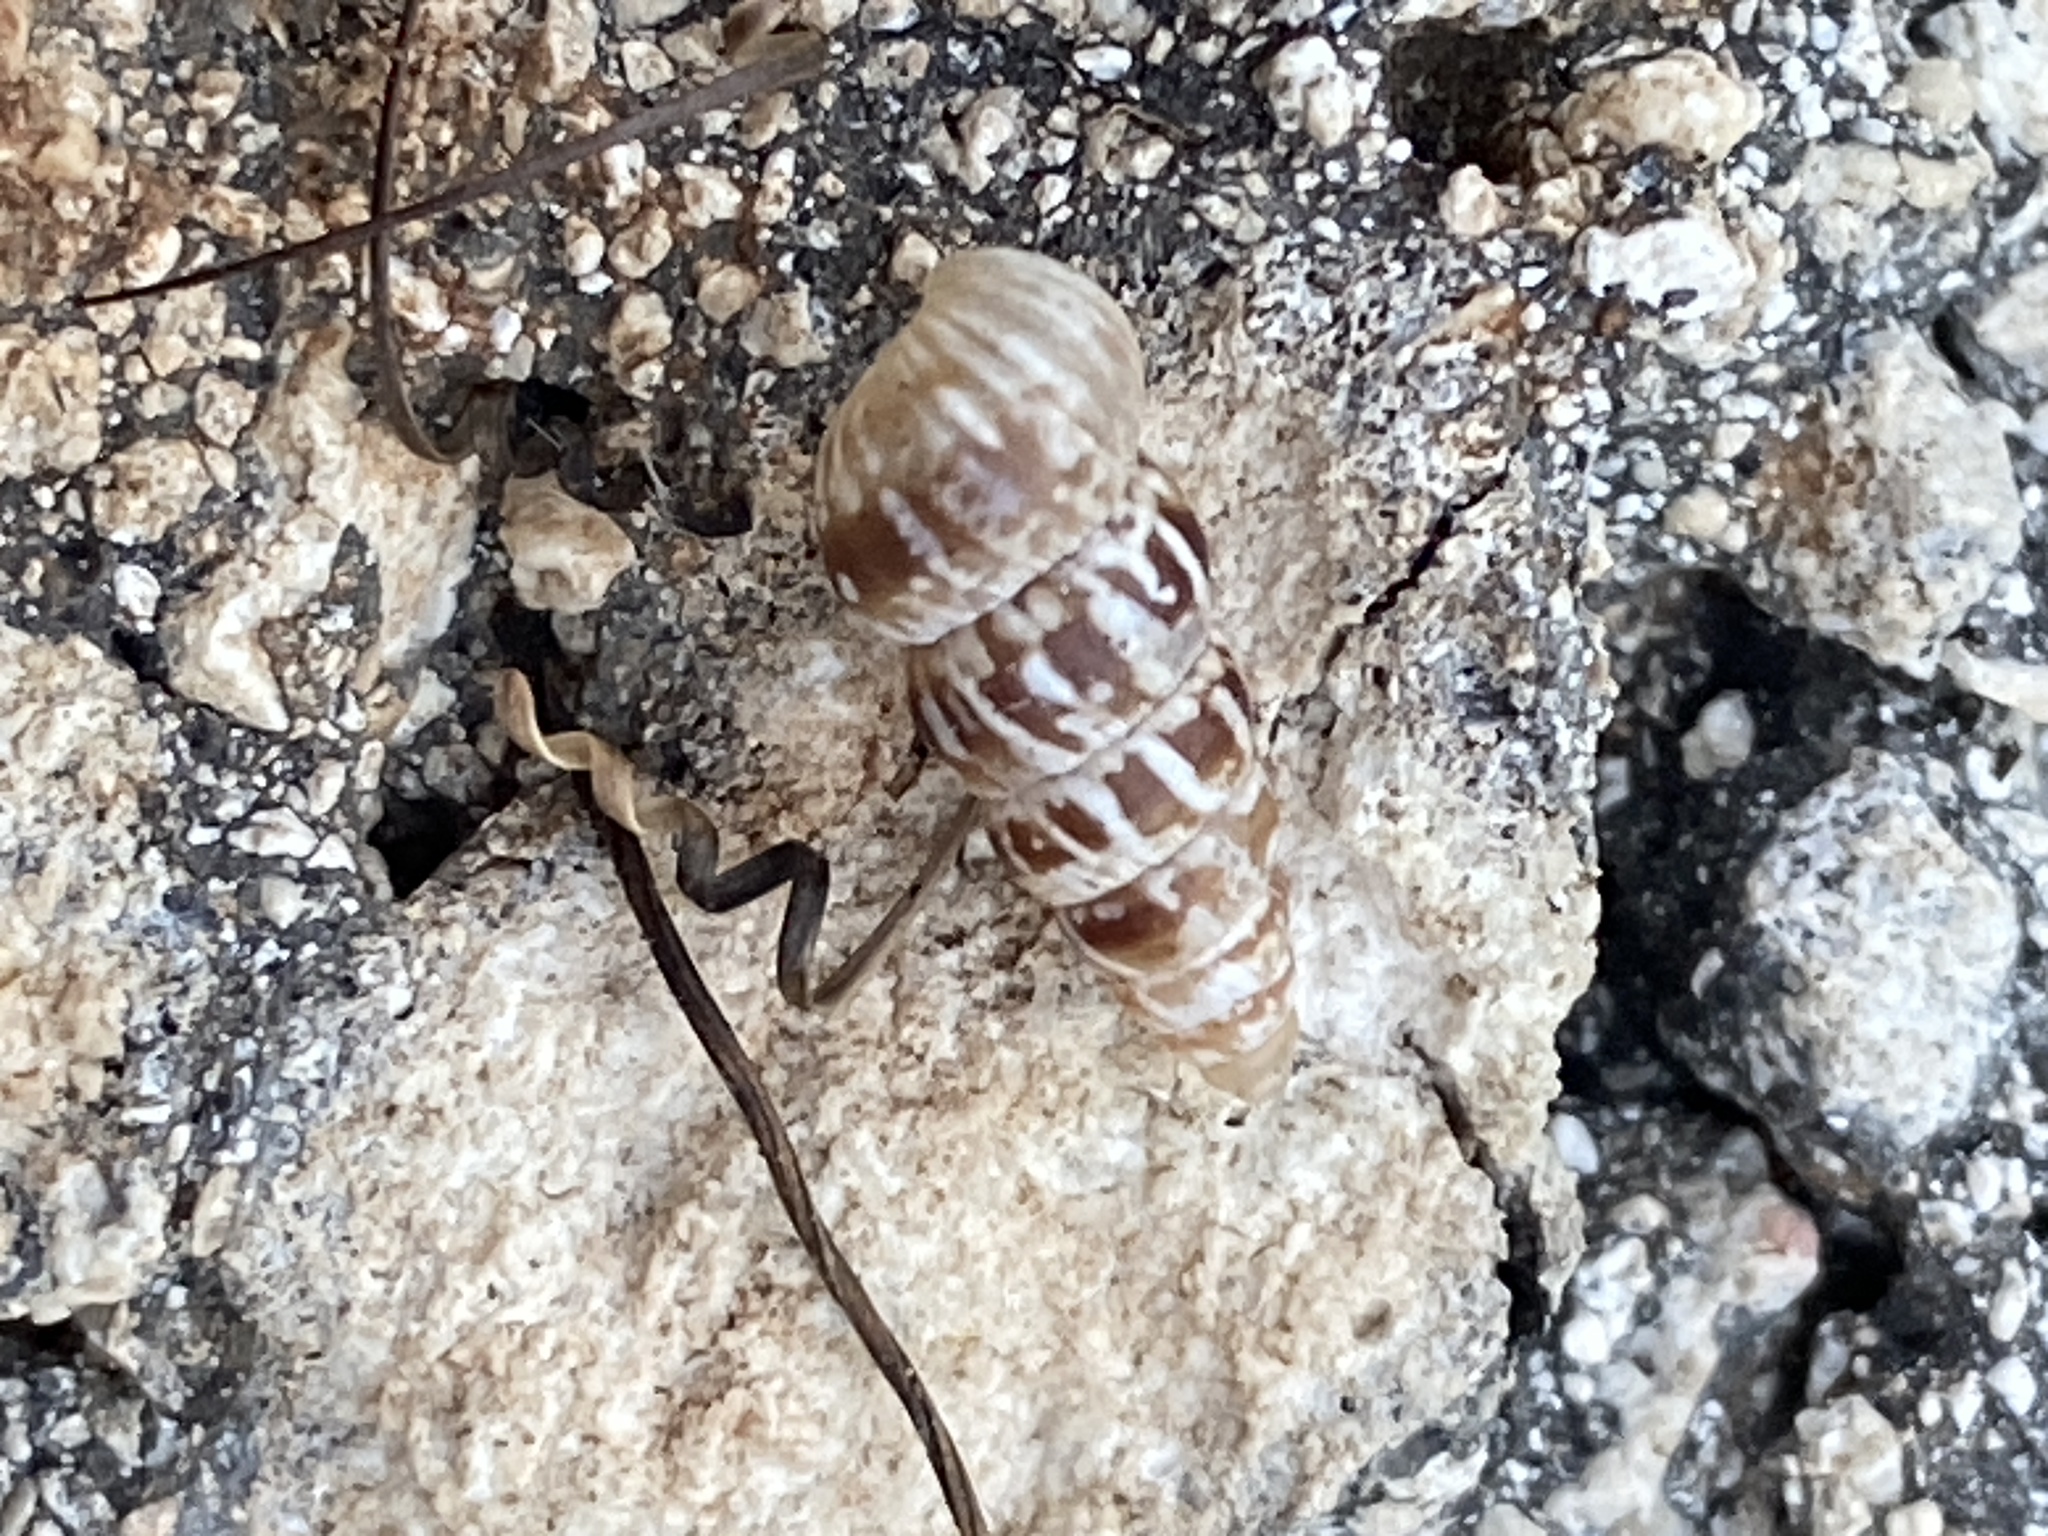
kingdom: Animalia
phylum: Mollusca
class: Gastropoda
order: Stylommatophora
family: Geomitridae
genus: Cochlicella
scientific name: Cochlicella acuta
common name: Pointed snail
